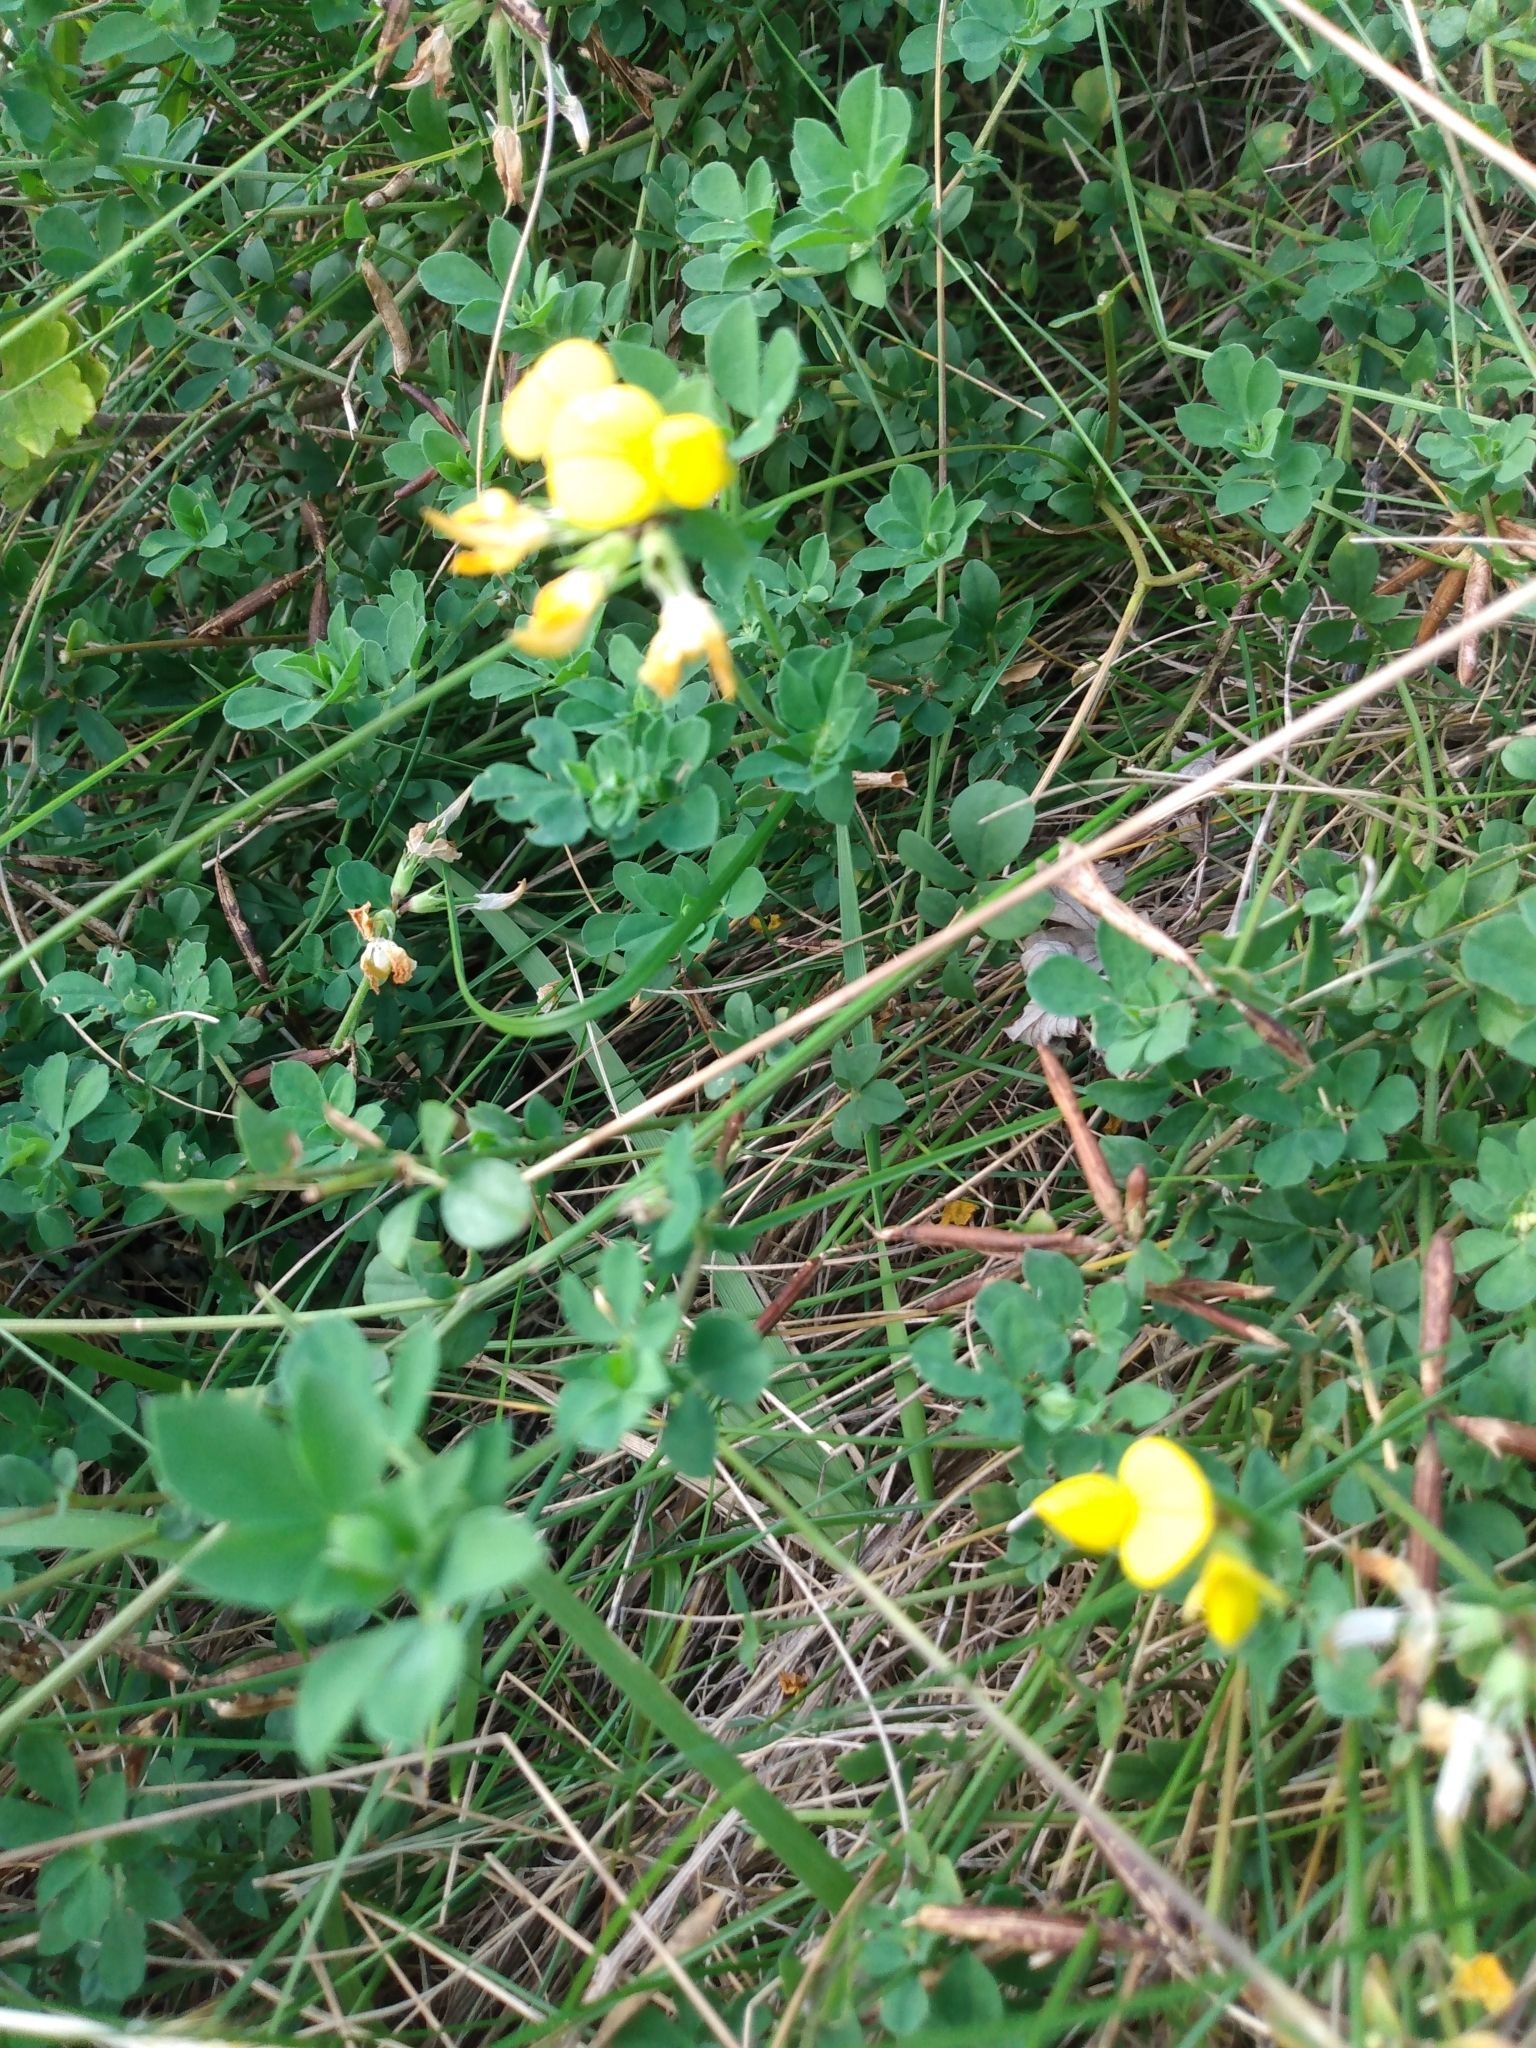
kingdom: Plantae
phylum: Tracheophyta
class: Magnoliopsida
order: Fabales
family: Fabaceae
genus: Lotus
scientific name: Lotus corniculatus
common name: Common bird's-foot-trefoil
